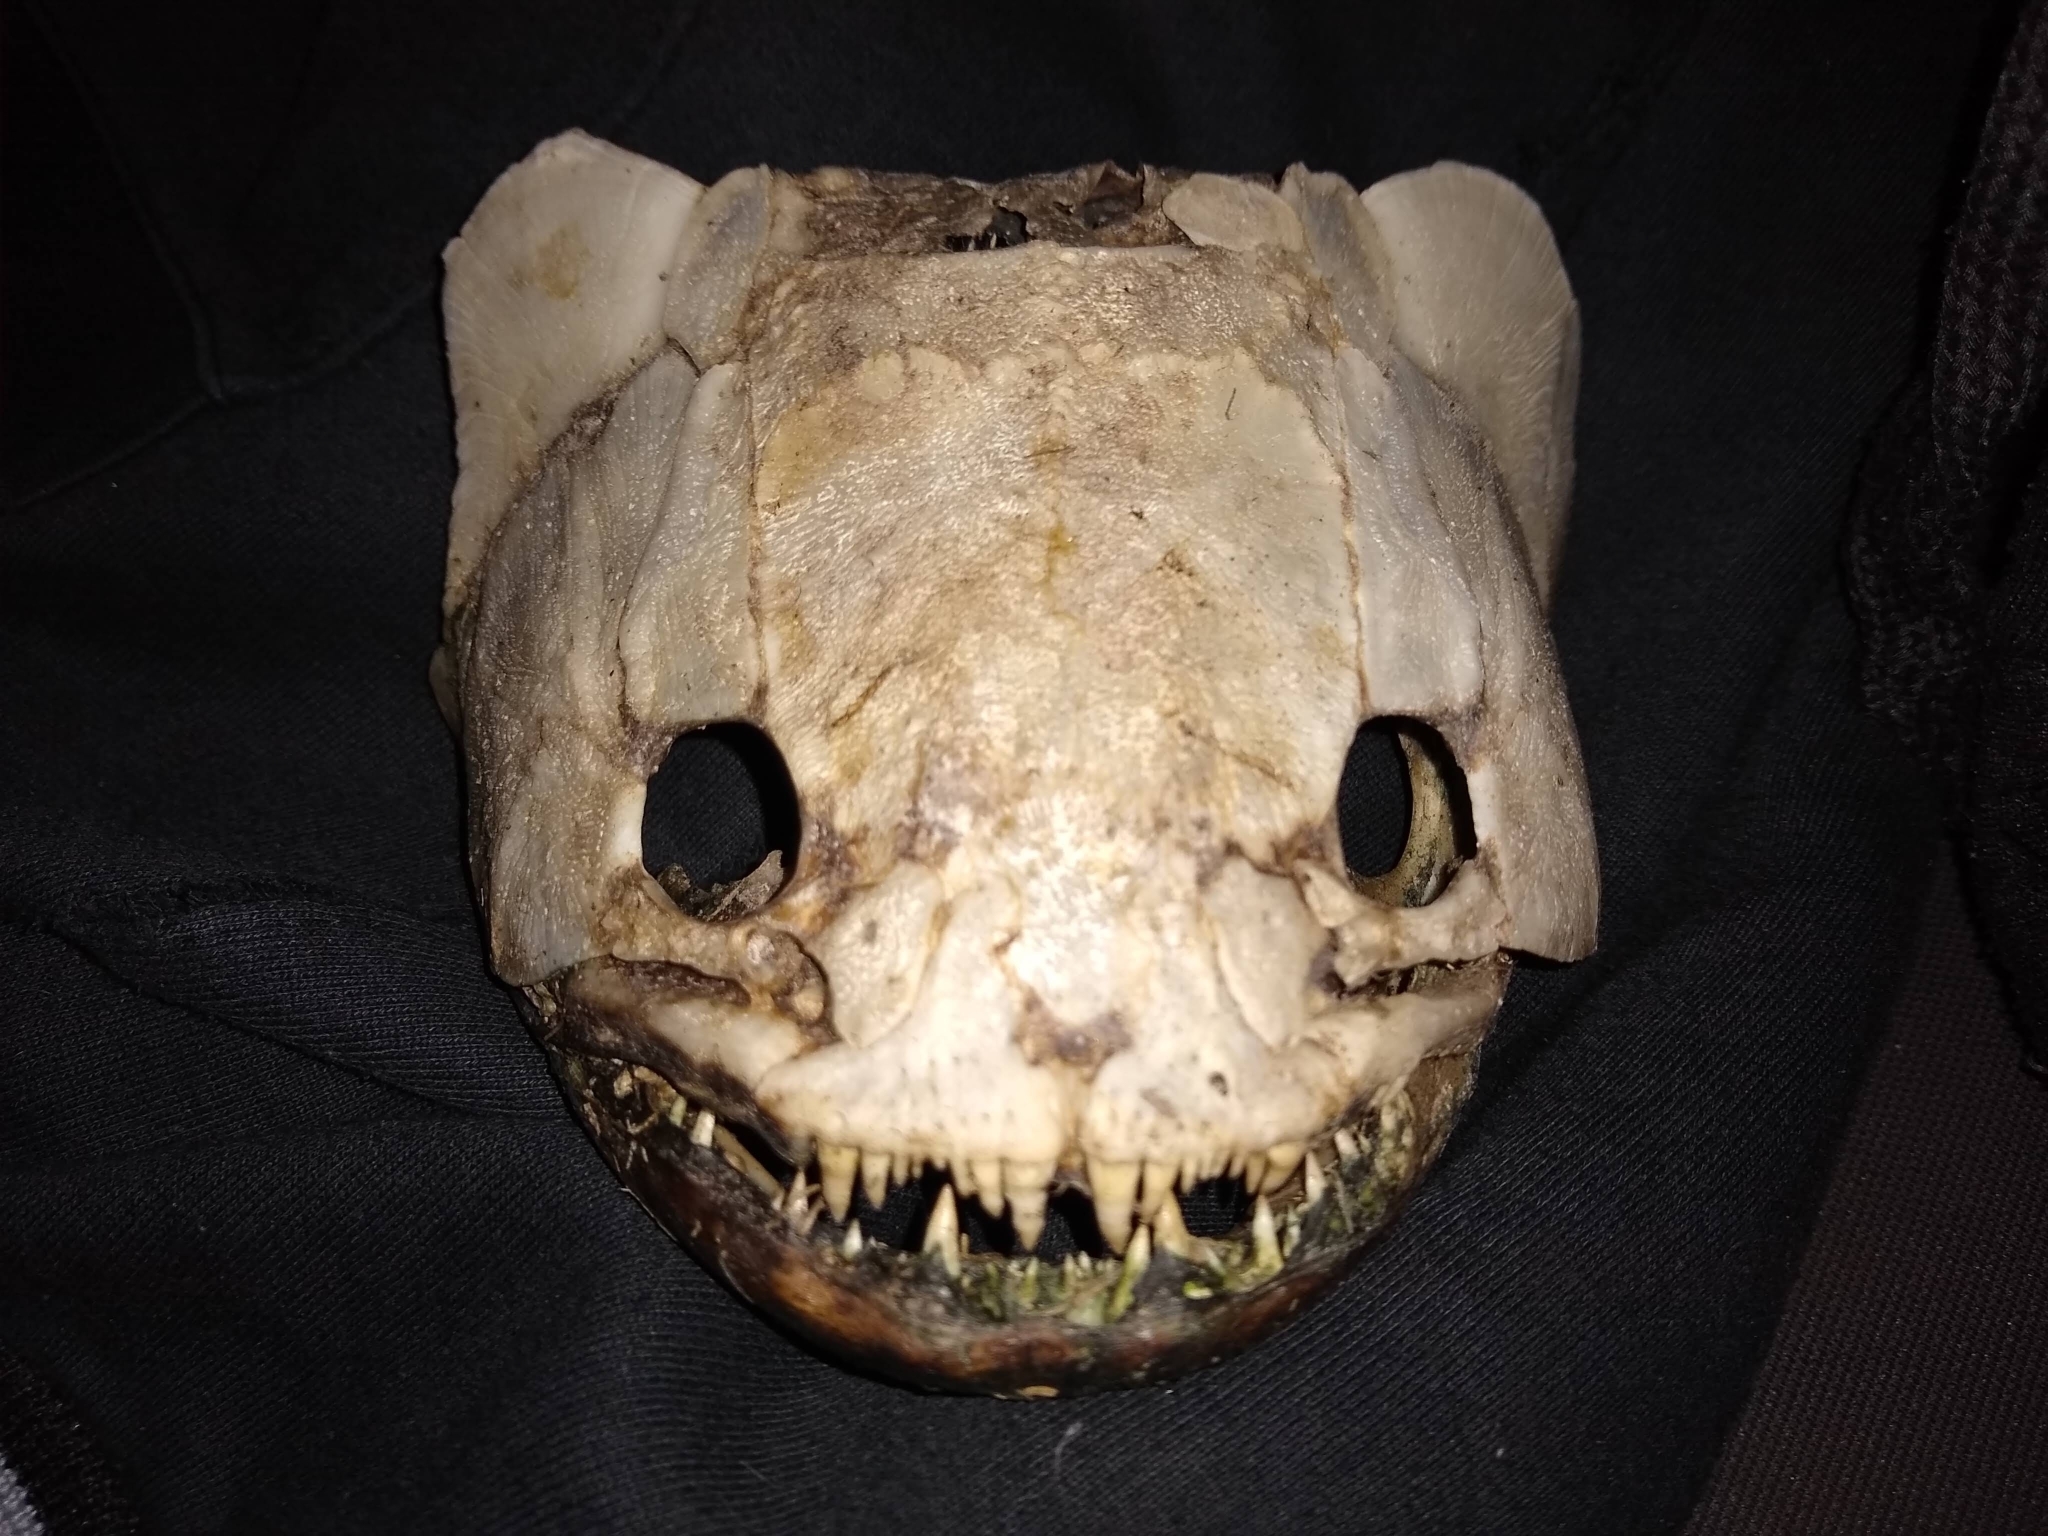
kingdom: Animalia
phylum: Chordata
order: Characiformes
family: Erythrinidae
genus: Hoplias
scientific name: Hoplias argentinensis
